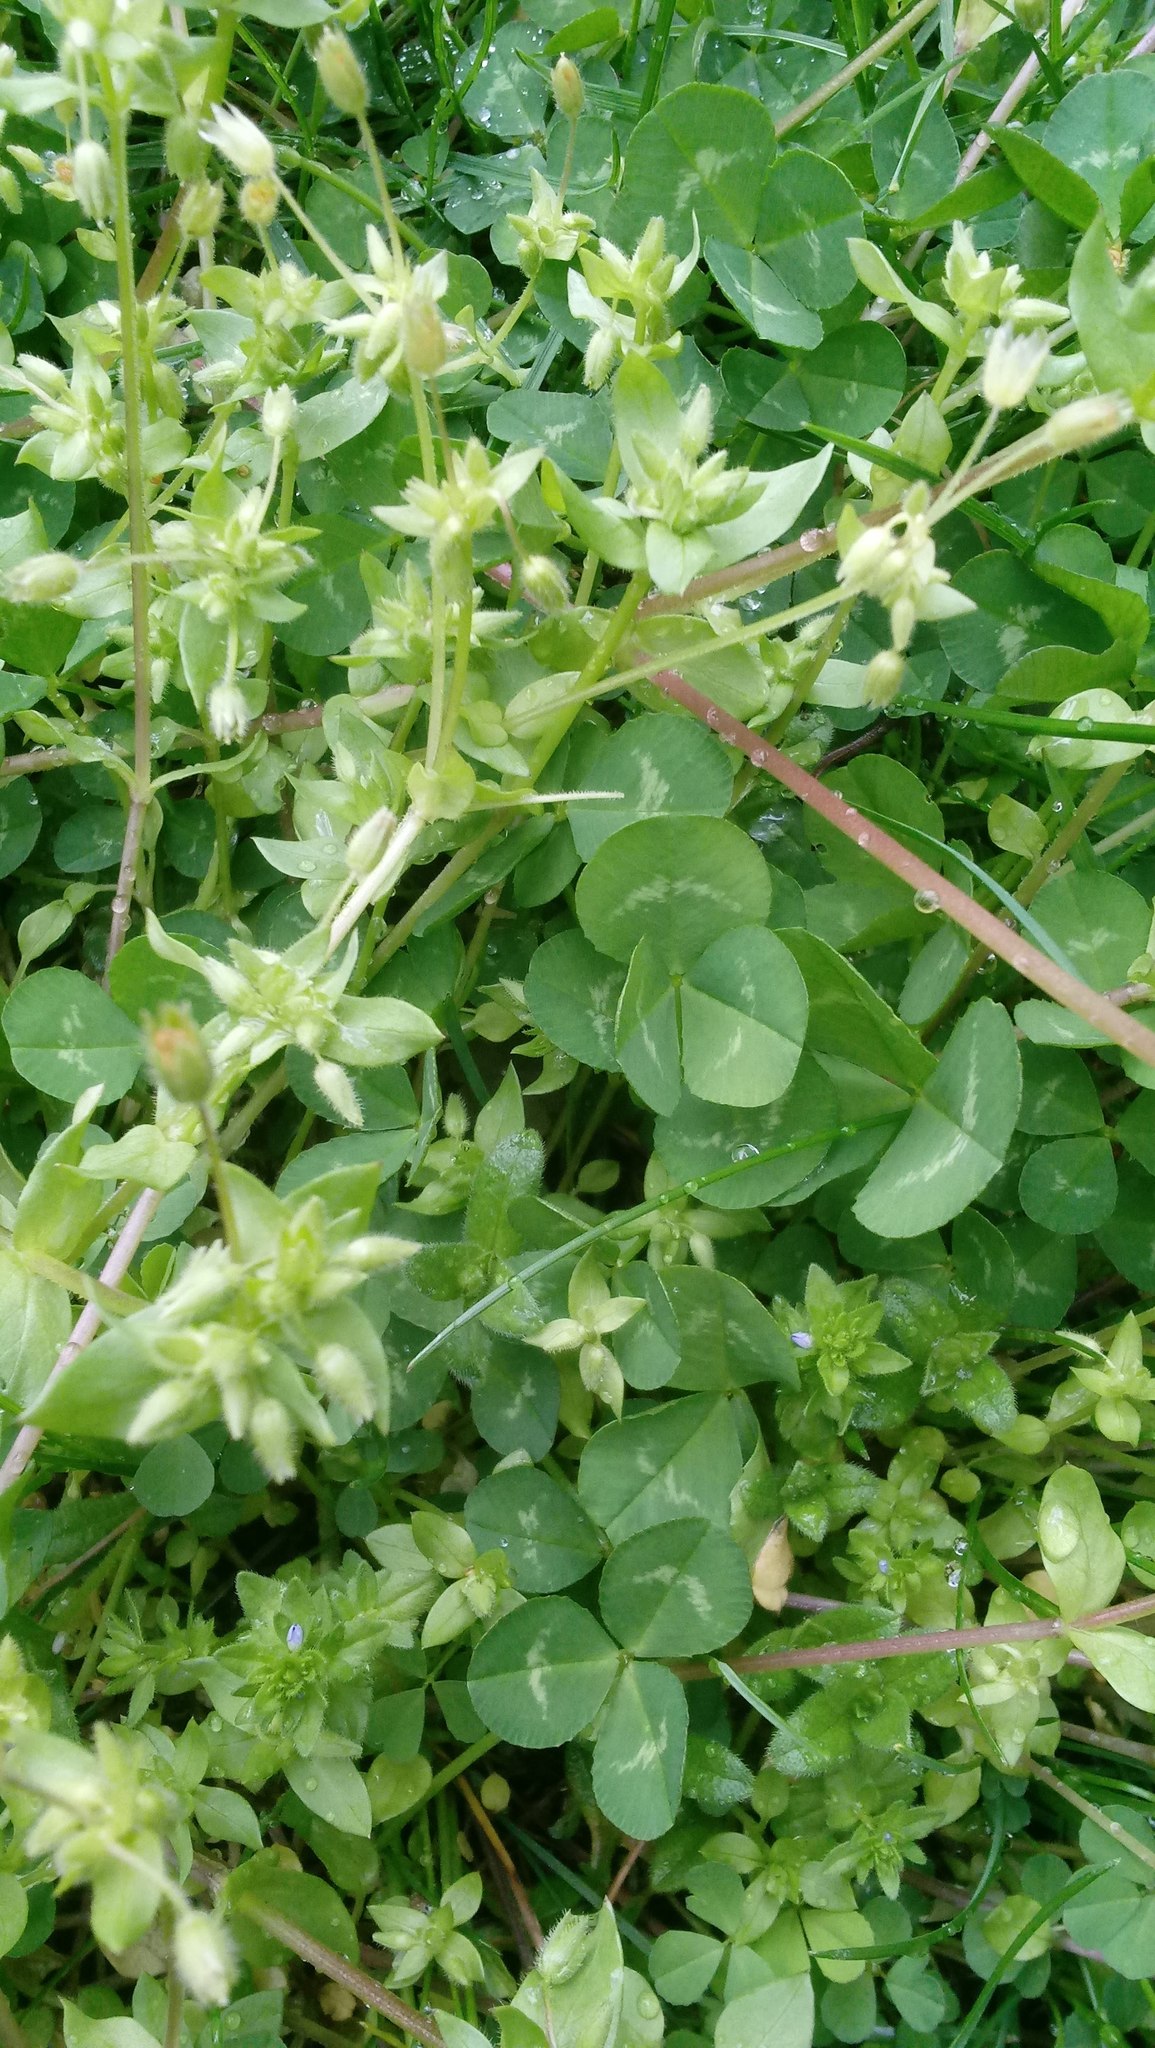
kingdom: Plantae
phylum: Tracheophyta
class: Magnoliopsida
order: Fabales
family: Fabaceae
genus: Trifolium
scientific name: Trifolium repens
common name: White clover
